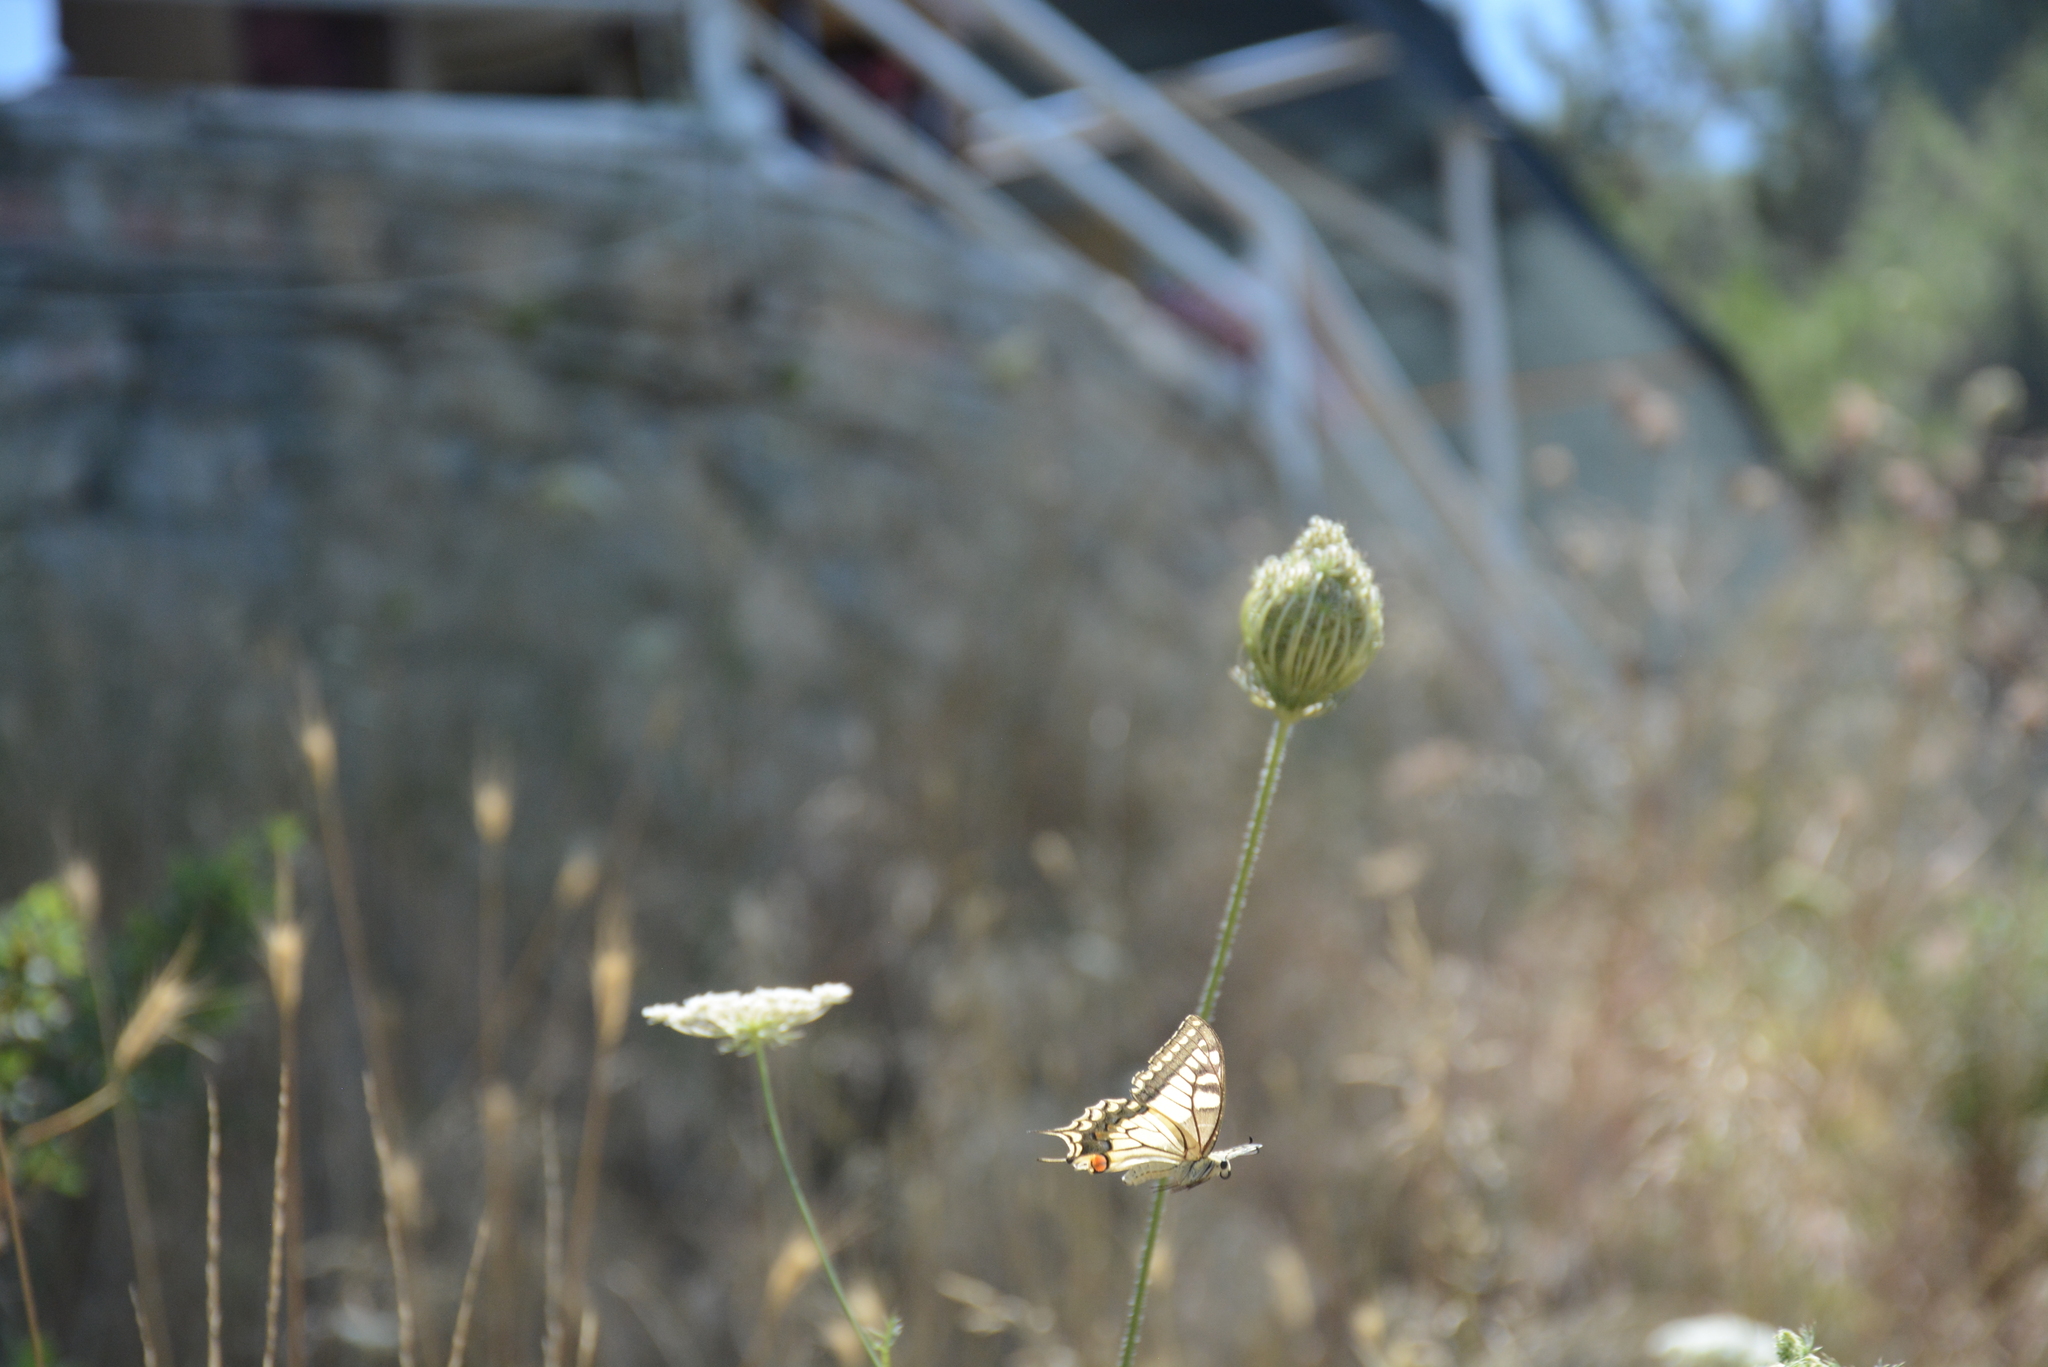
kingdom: Animalia
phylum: Arthropoda
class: Insecta
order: Lepidoptera
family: Papilionidae
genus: Papilio
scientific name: Papilio machaon
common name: Swallowtail
